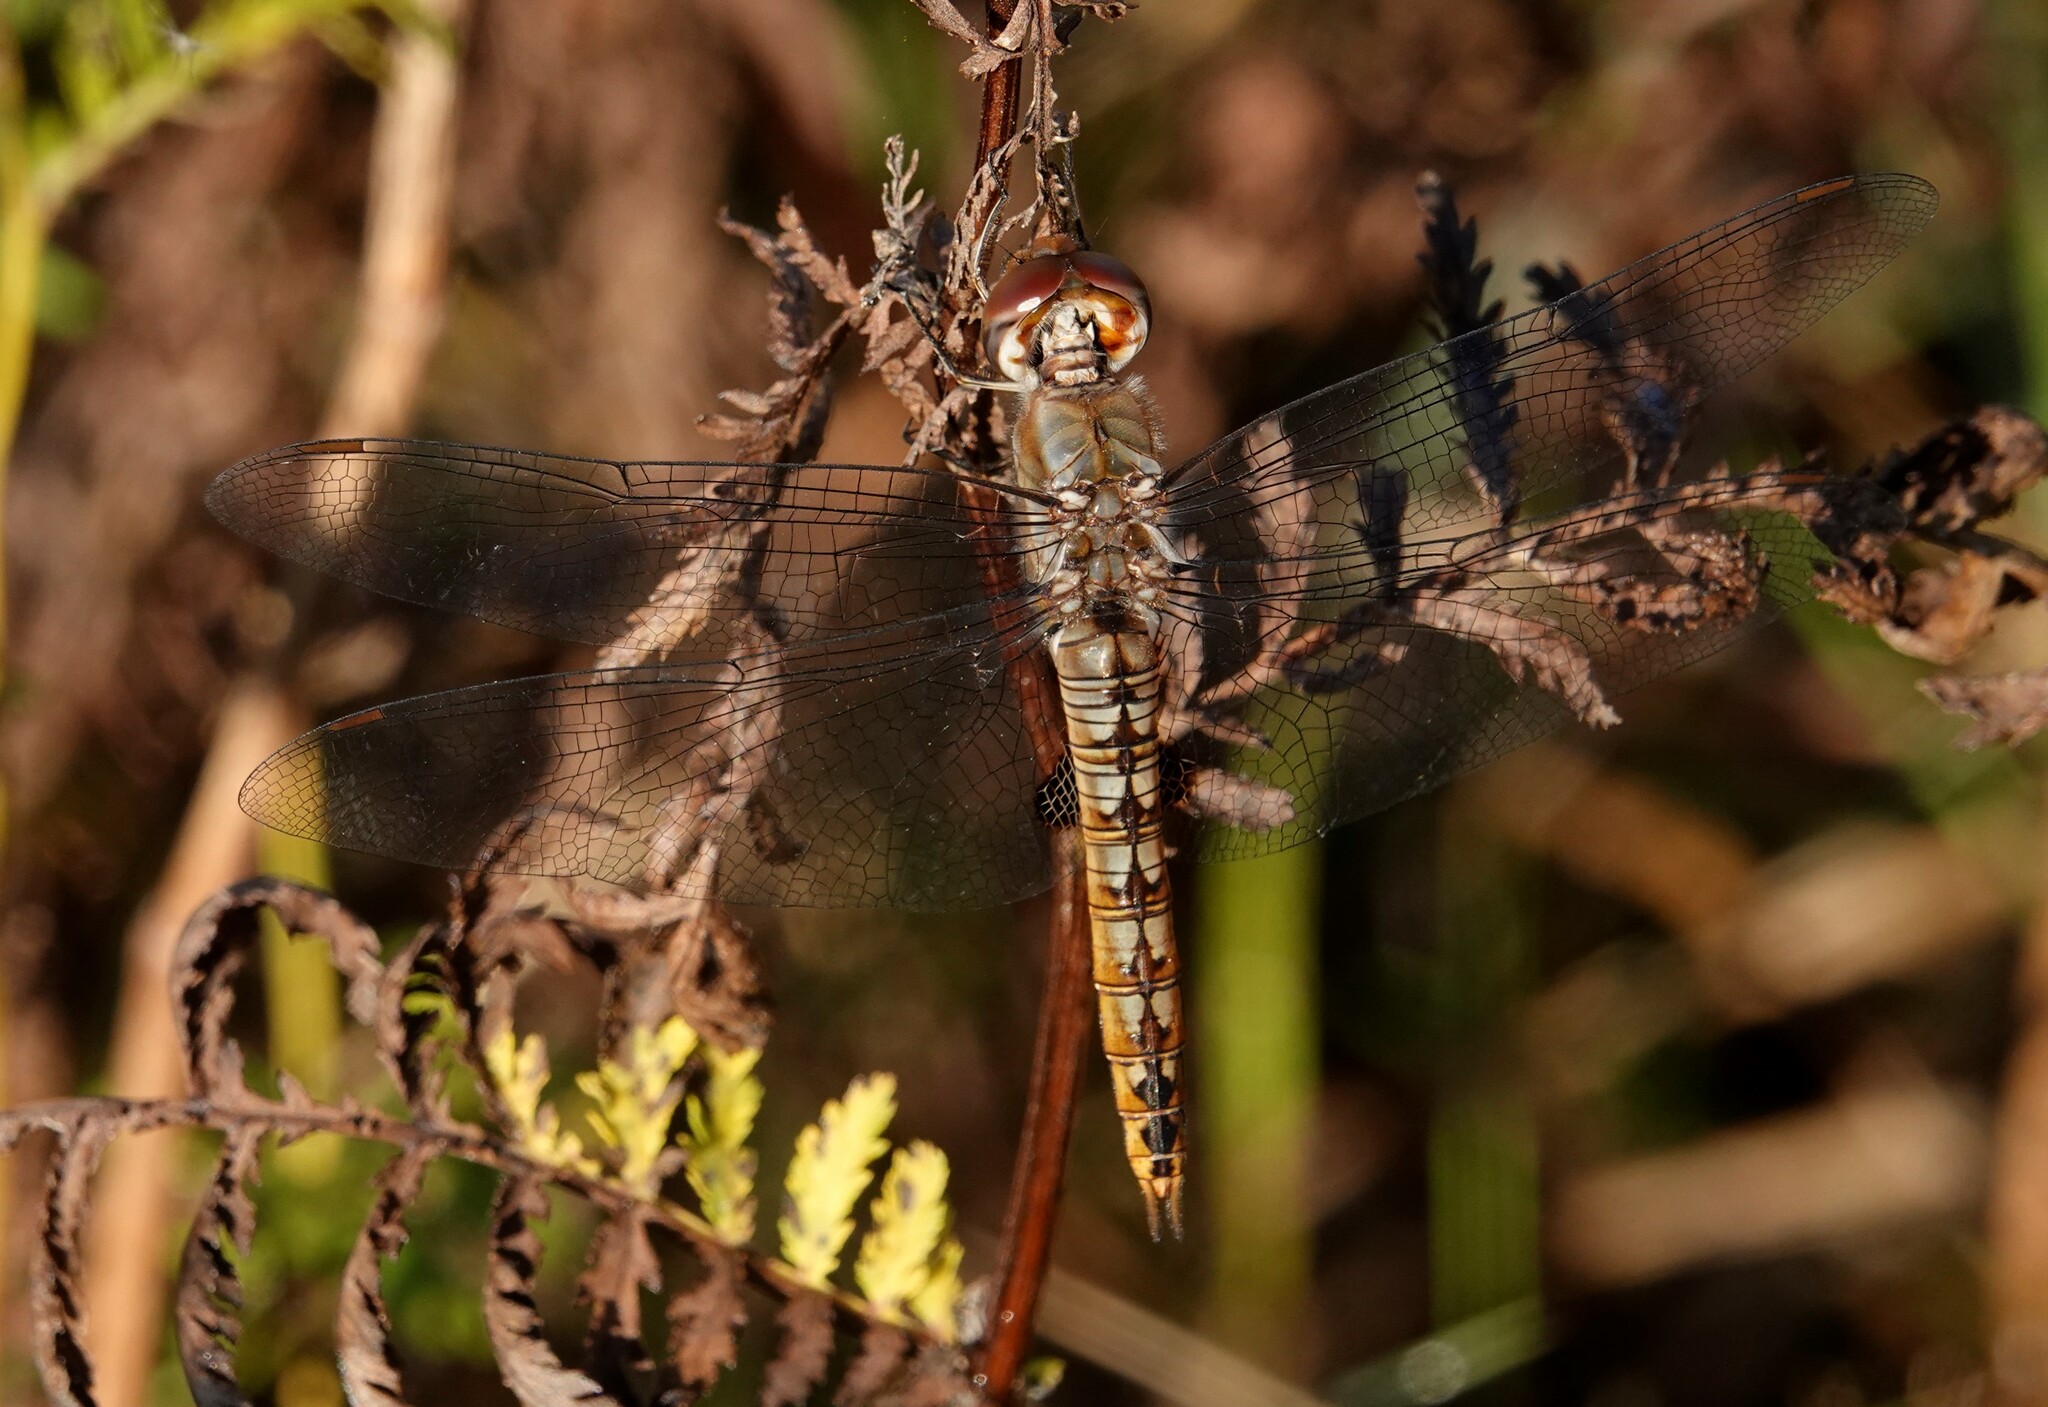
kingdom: Animalia
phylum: Arthropoda
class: Insecta
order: Odonata
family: Libellulidae
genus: Pantala
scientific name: Pantala hymenaea
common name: Spot-winged glider
